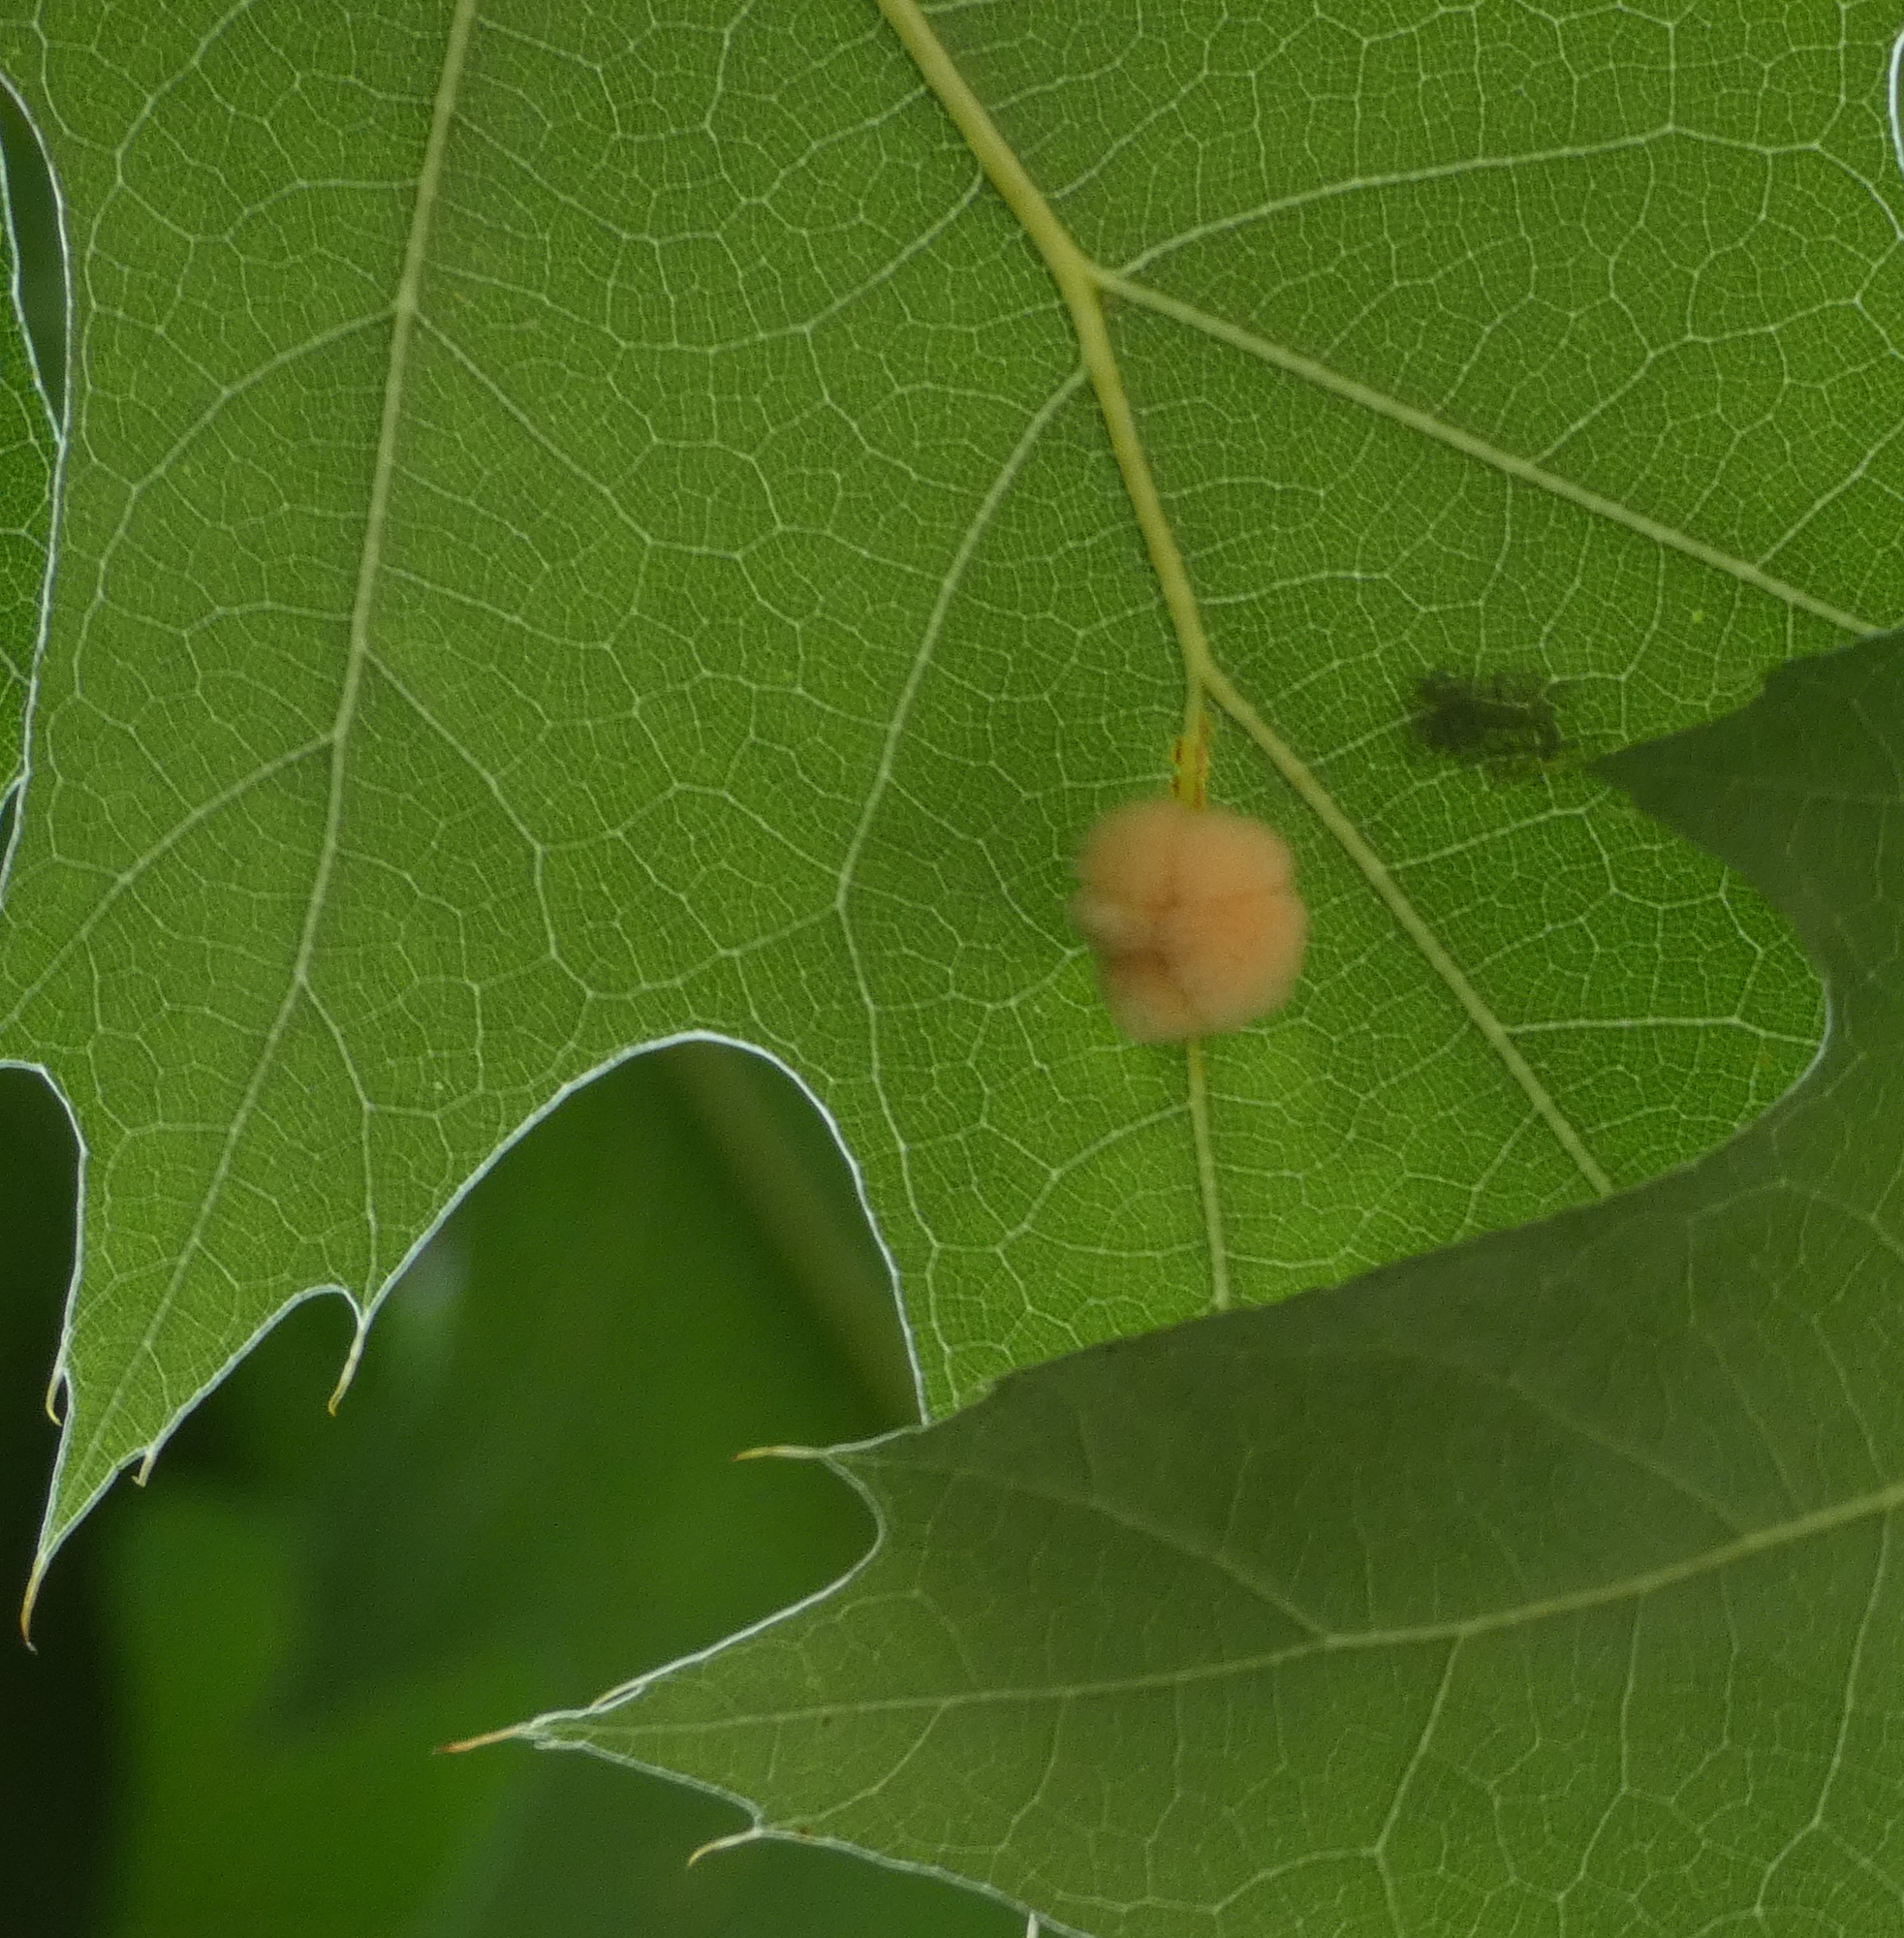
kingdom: Animalia
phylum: Arthropoda
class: Insecta
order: Hymenoptera
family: Cynipidae
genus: Callirhytis
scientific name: Callirhytis
